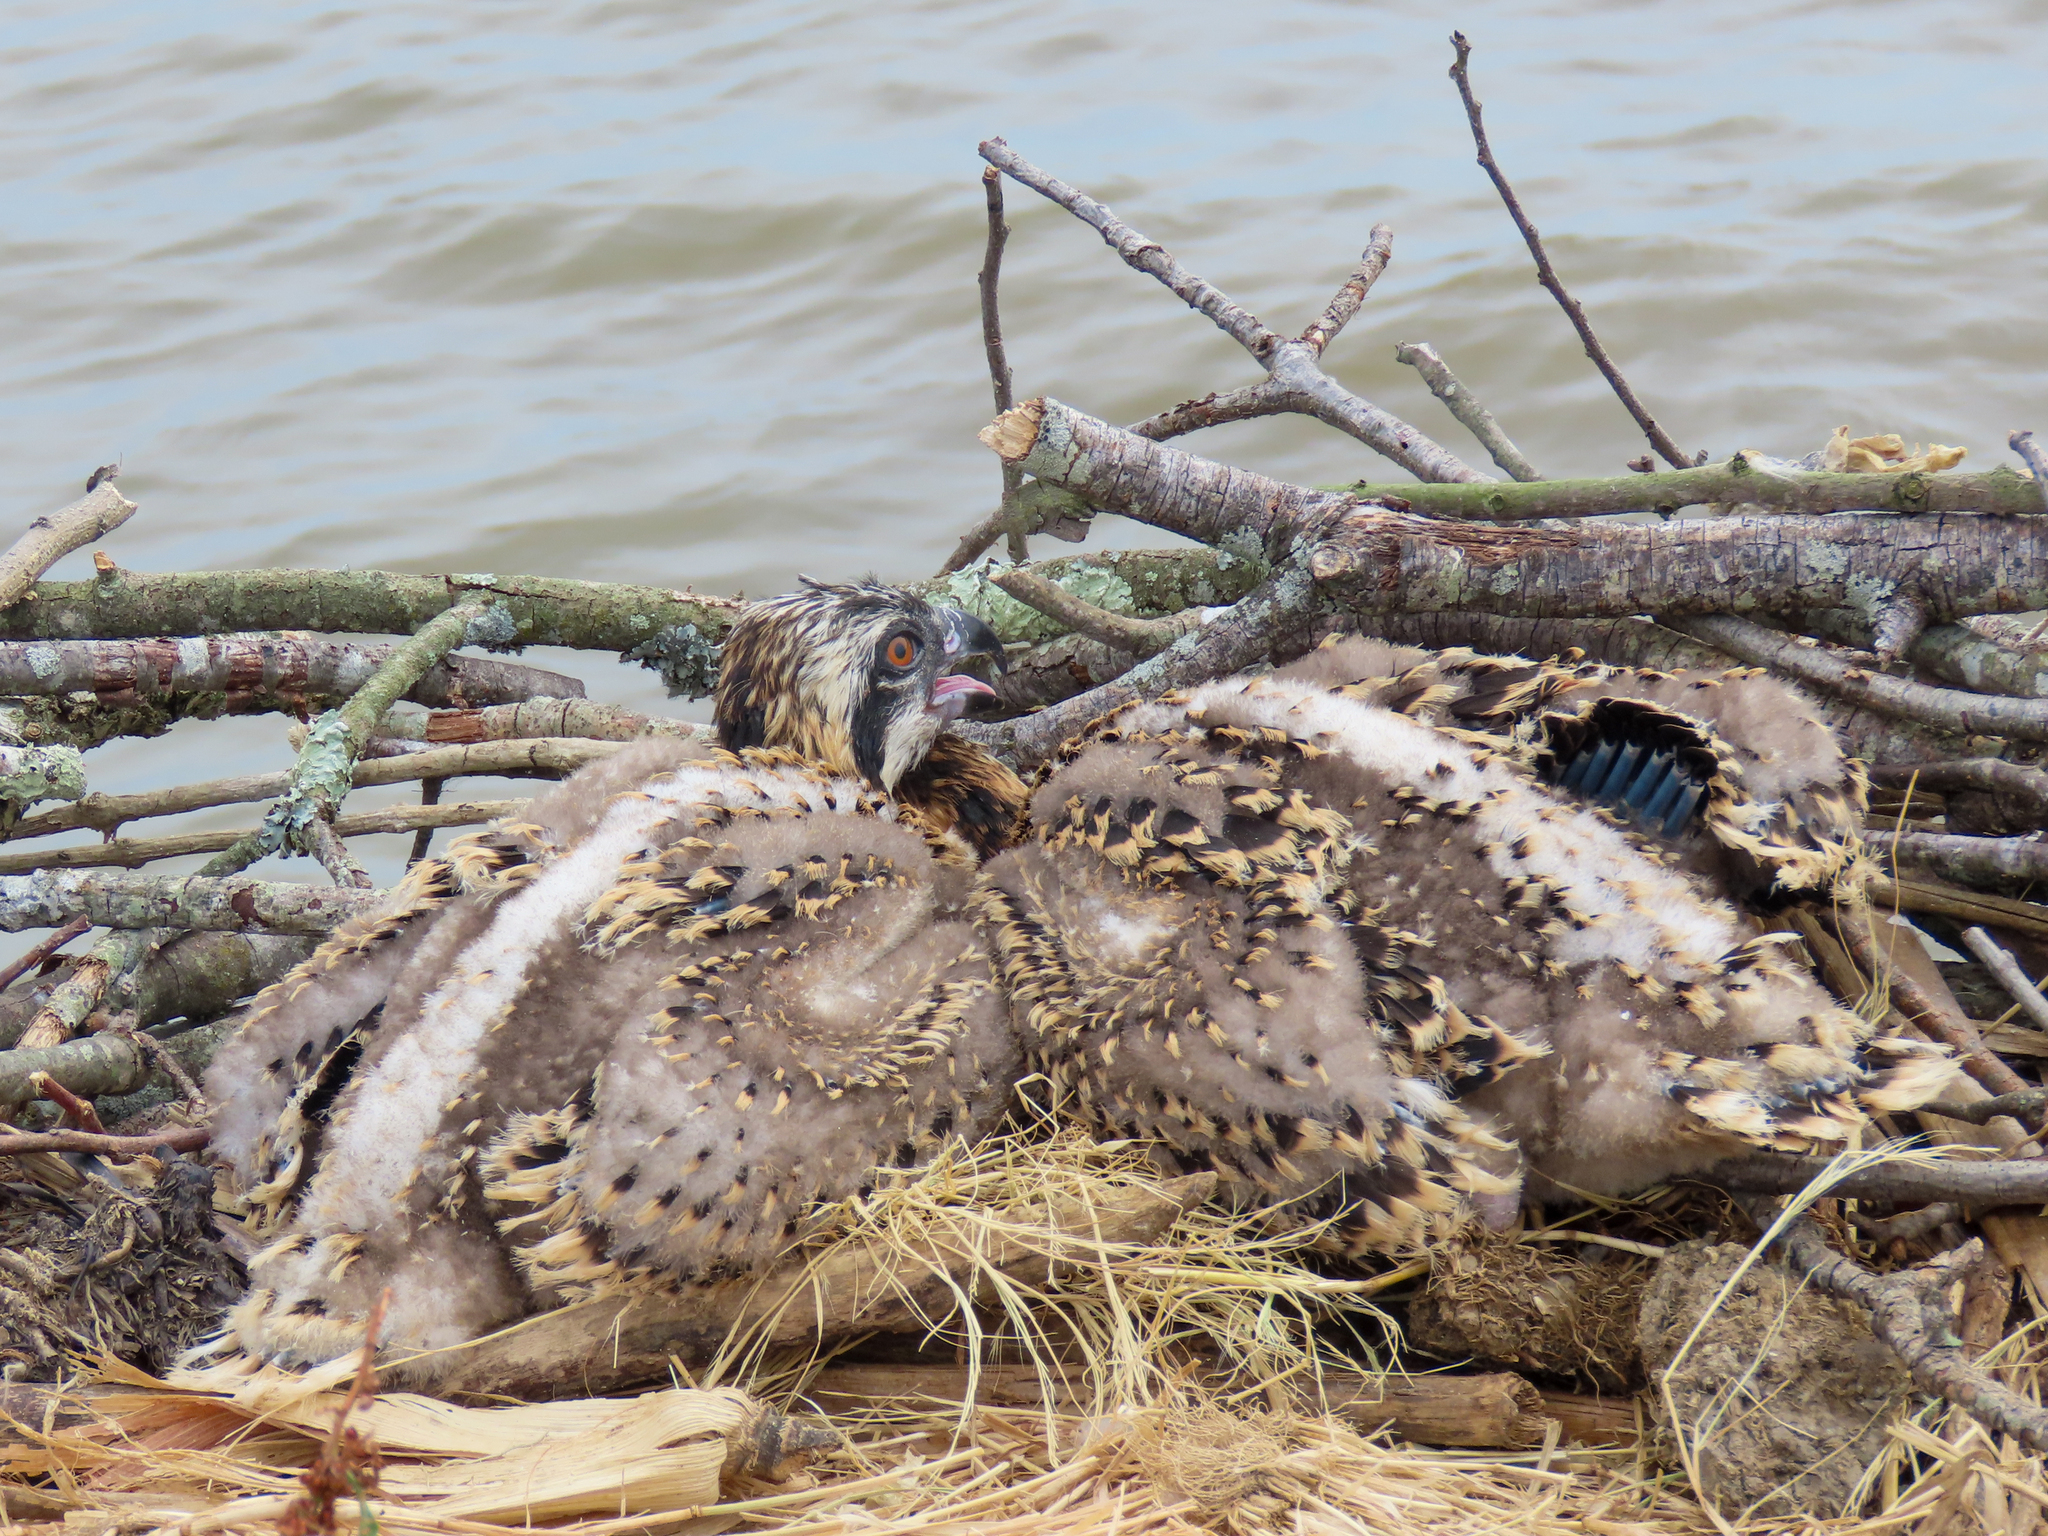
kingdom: Animalia
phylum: Chordata
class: Aves
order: Accipitriformes
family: Pandionidae
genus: Pandion
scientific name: Pandion haliaetus
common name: Osprey
